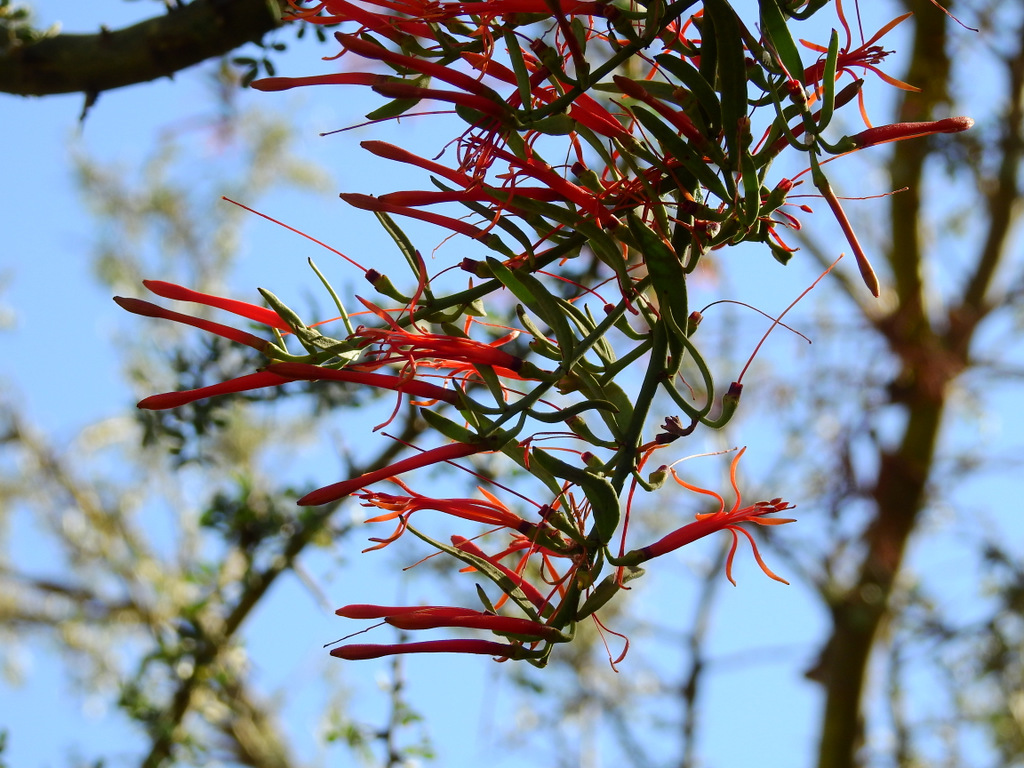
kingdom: Plantae
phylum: Tracheophyta
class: Magnoliopsida
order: Santalales
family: Loranthaceae
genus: Ligaria
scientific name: Ligaria cuneifolia
